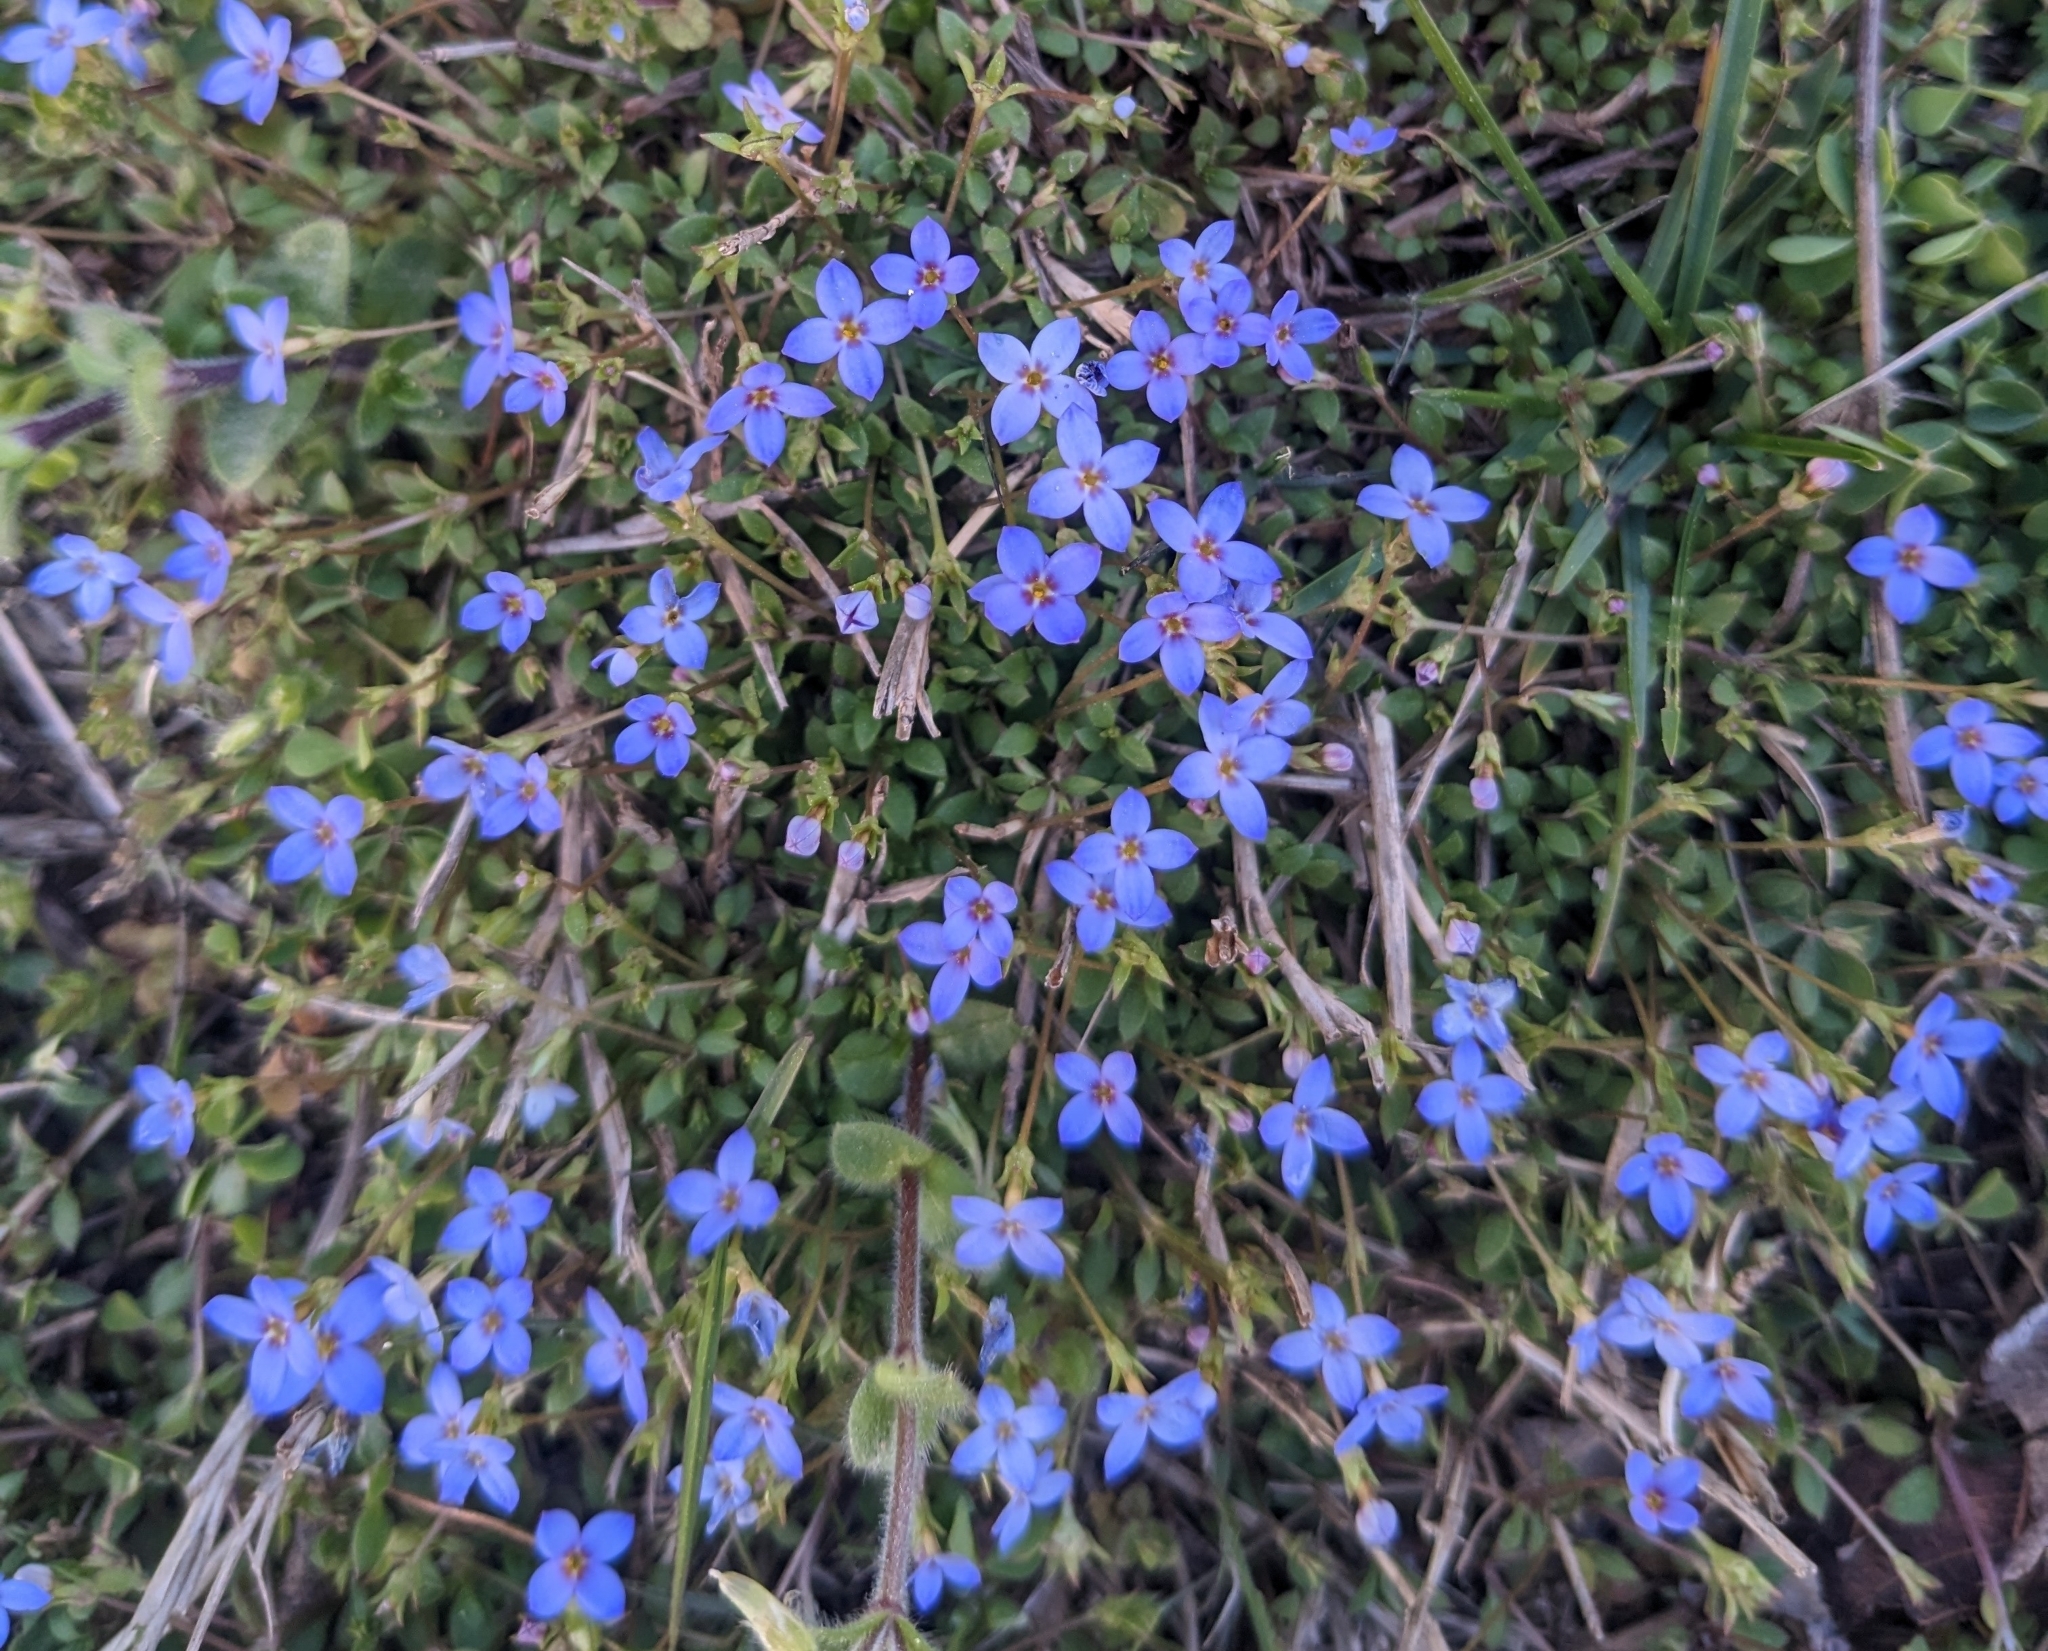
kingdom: Plantae
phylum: Tracheophyta
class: Magnoliopsida
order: Gentianales
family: Rubiaceae
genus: Houstonia
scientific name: Houstonia pusilla
